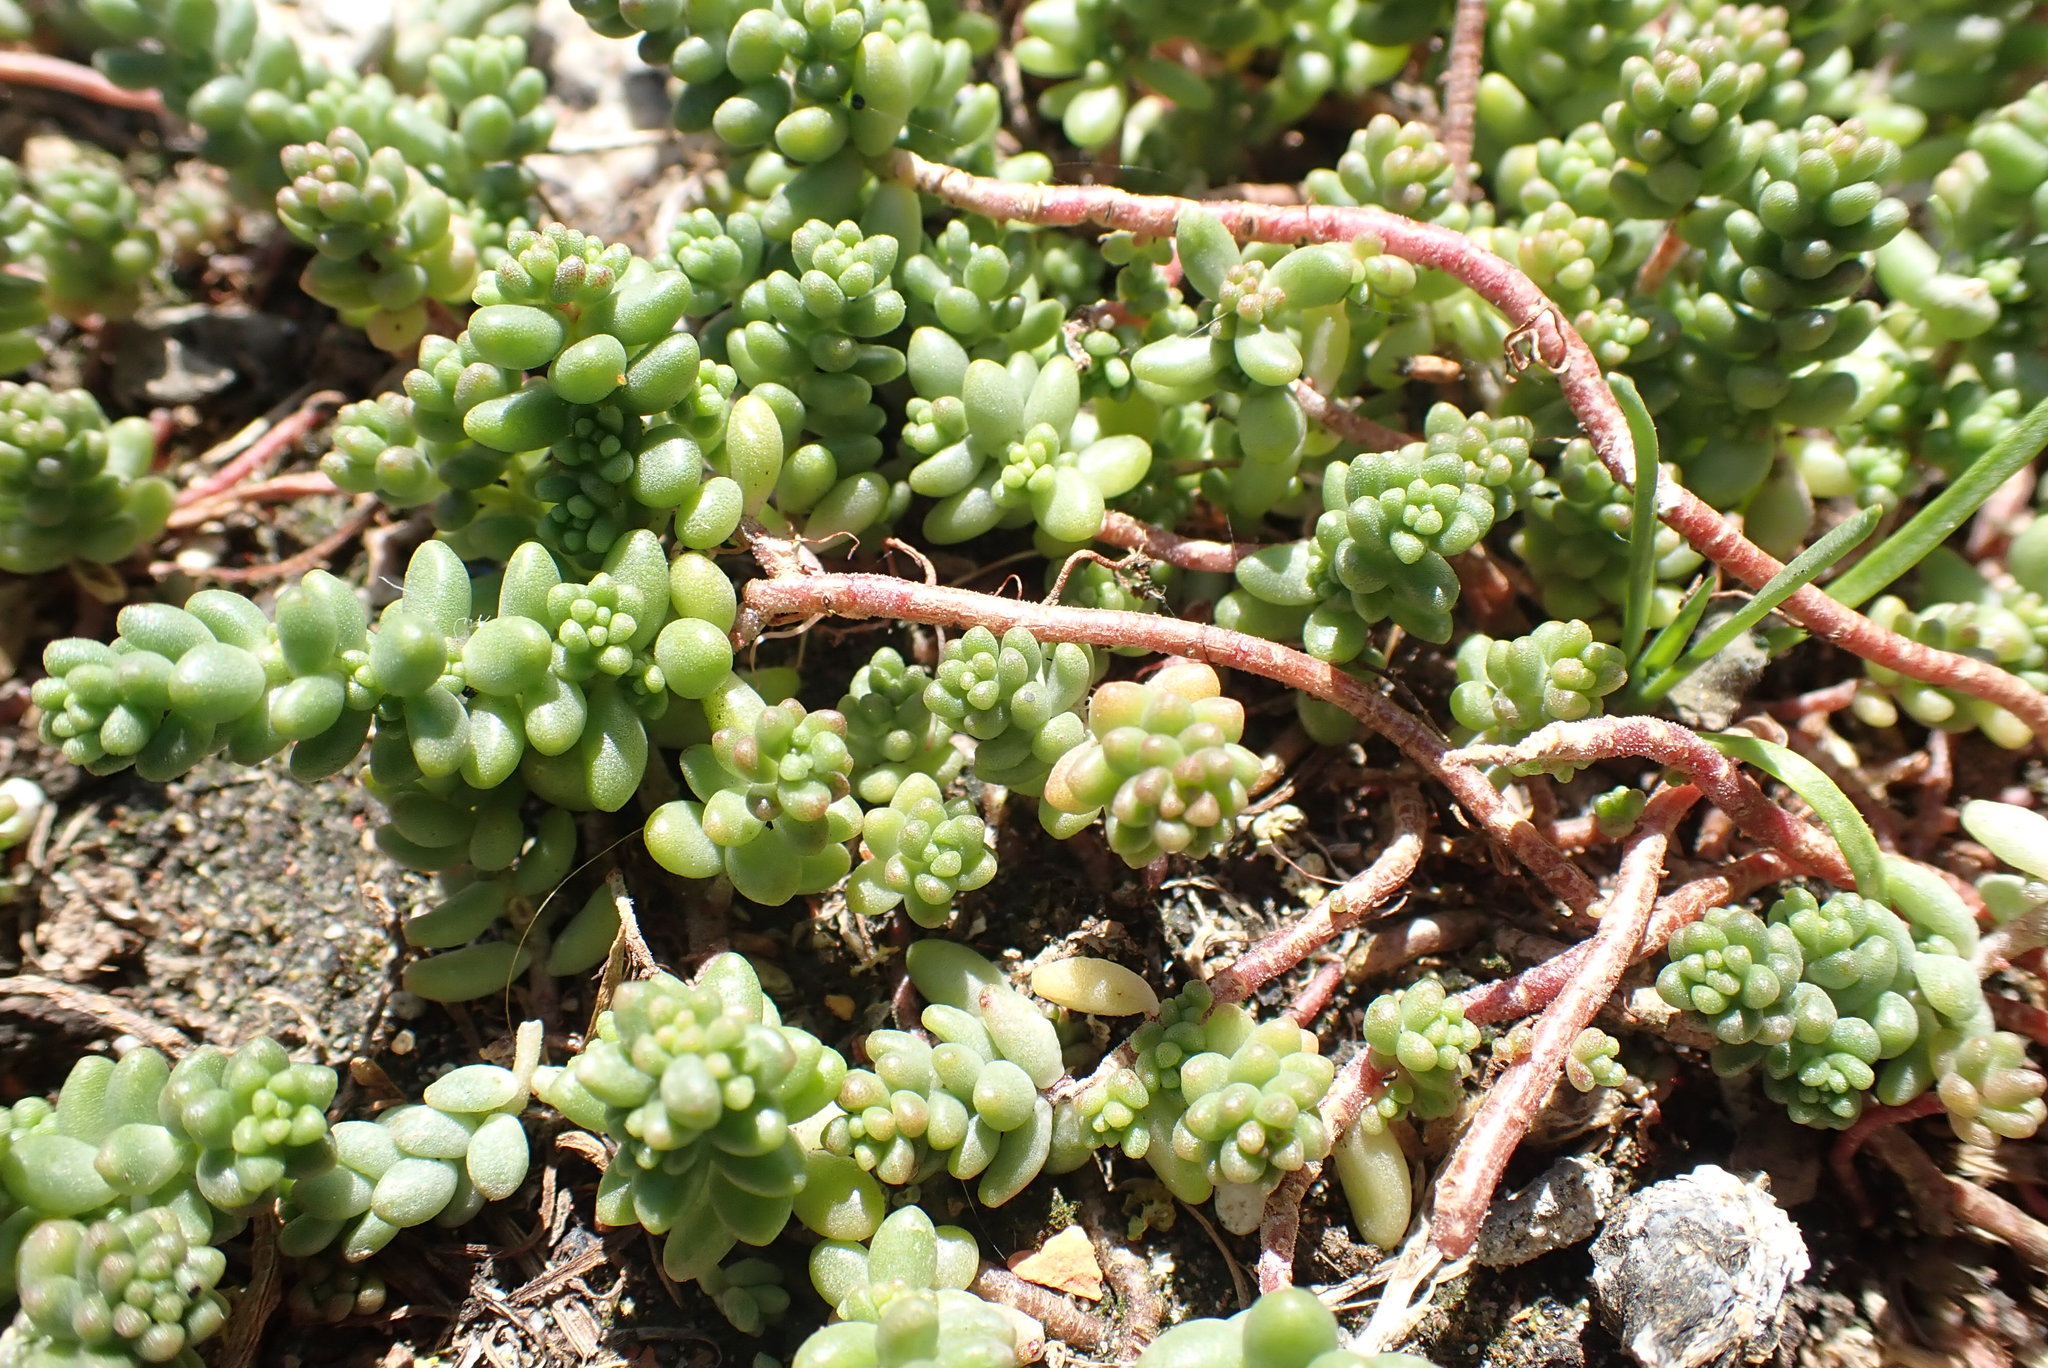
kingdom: Plantae
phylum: Tracheophyta
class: Magnoliopsida
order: Saxifragales
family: Crassulaceae
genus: Sedum
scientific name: Sedum album
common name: White stonecrop
